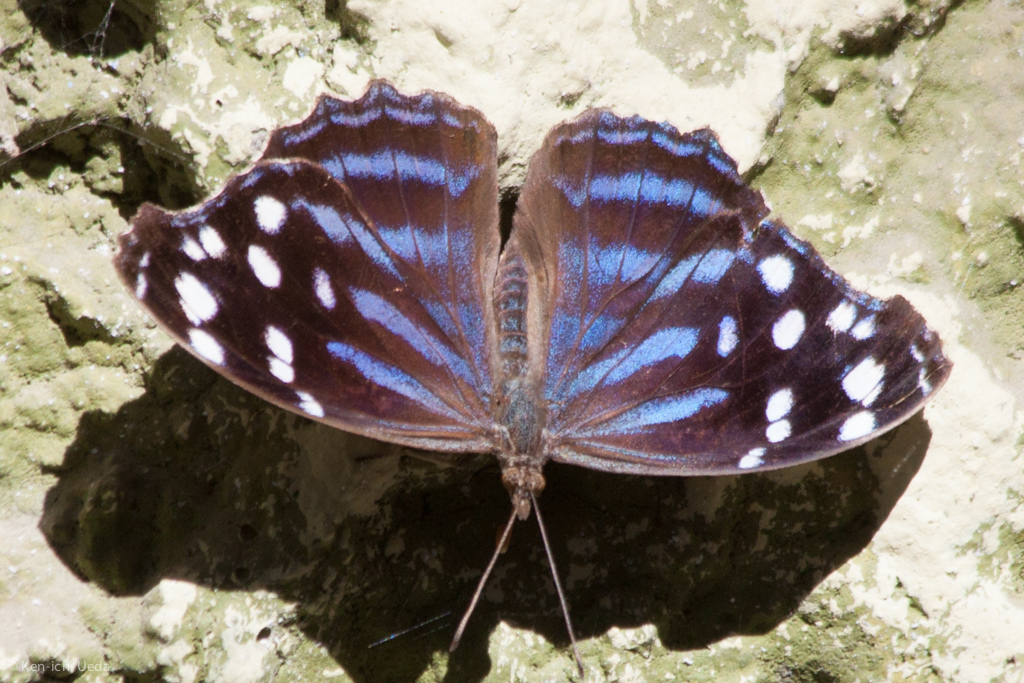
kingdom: Animalia
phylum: Arthropoda
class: Insecta
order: Lepidoptera
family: Nymphalidae
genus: Myscelia
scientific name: Myscelia cyananthe
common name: Blackened bluewing
